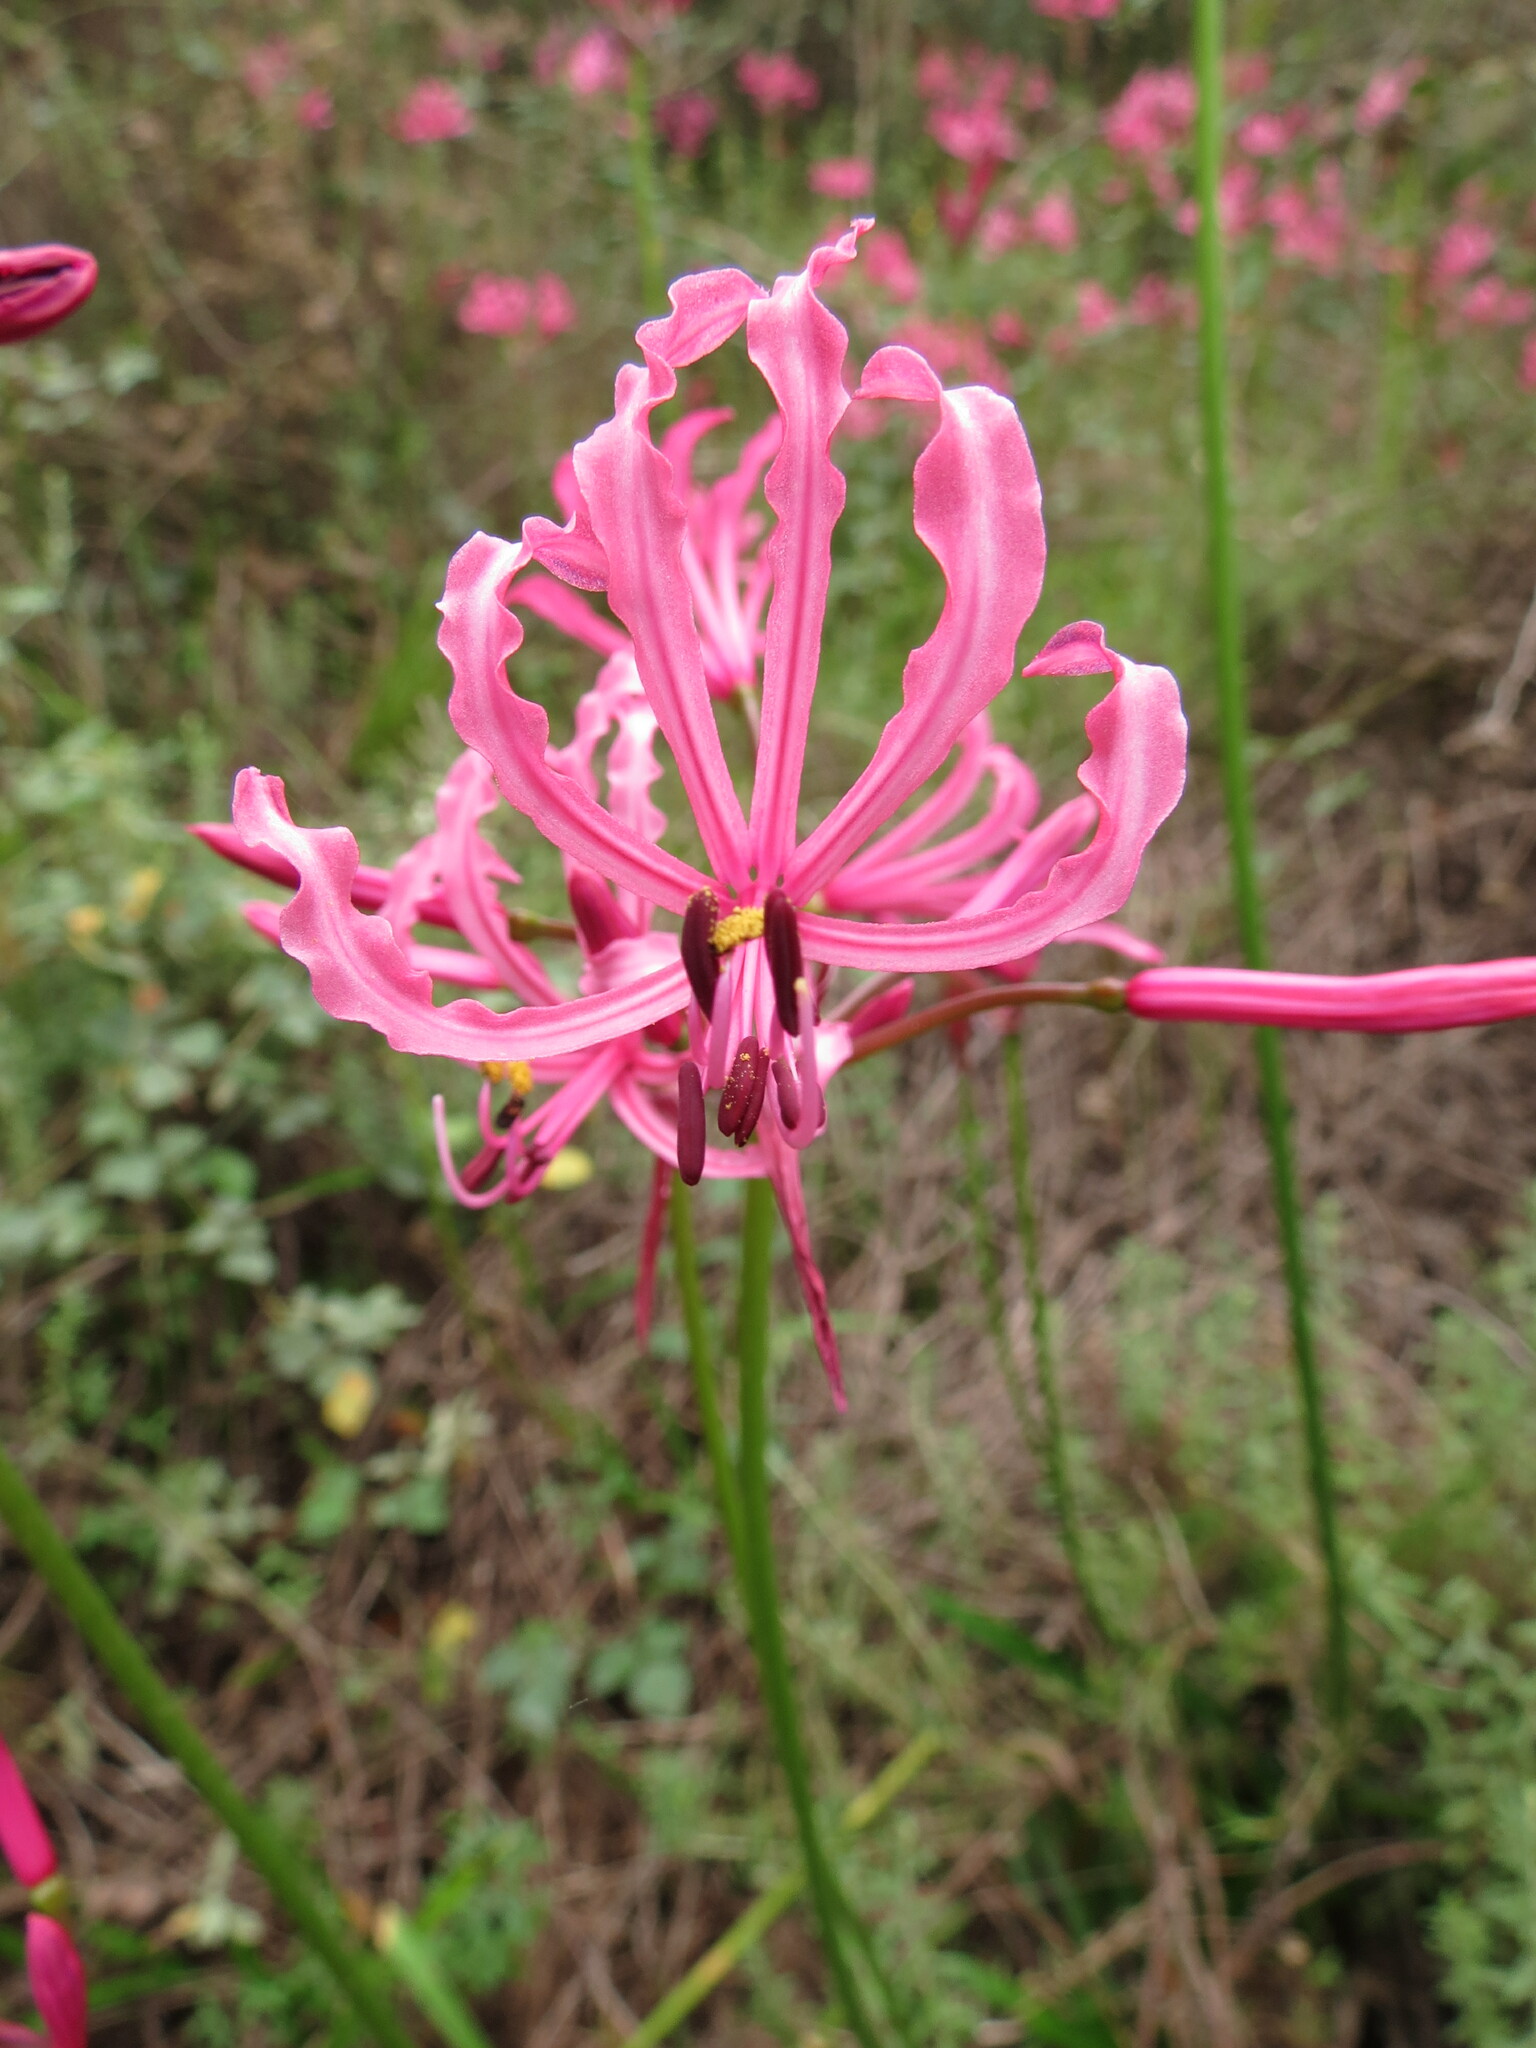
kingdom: Plantae
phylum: Tracheophyta
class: Liliopsida
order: Asparagales
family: Amaryllidaceae
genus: Nerine
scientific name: Nerine humilis
